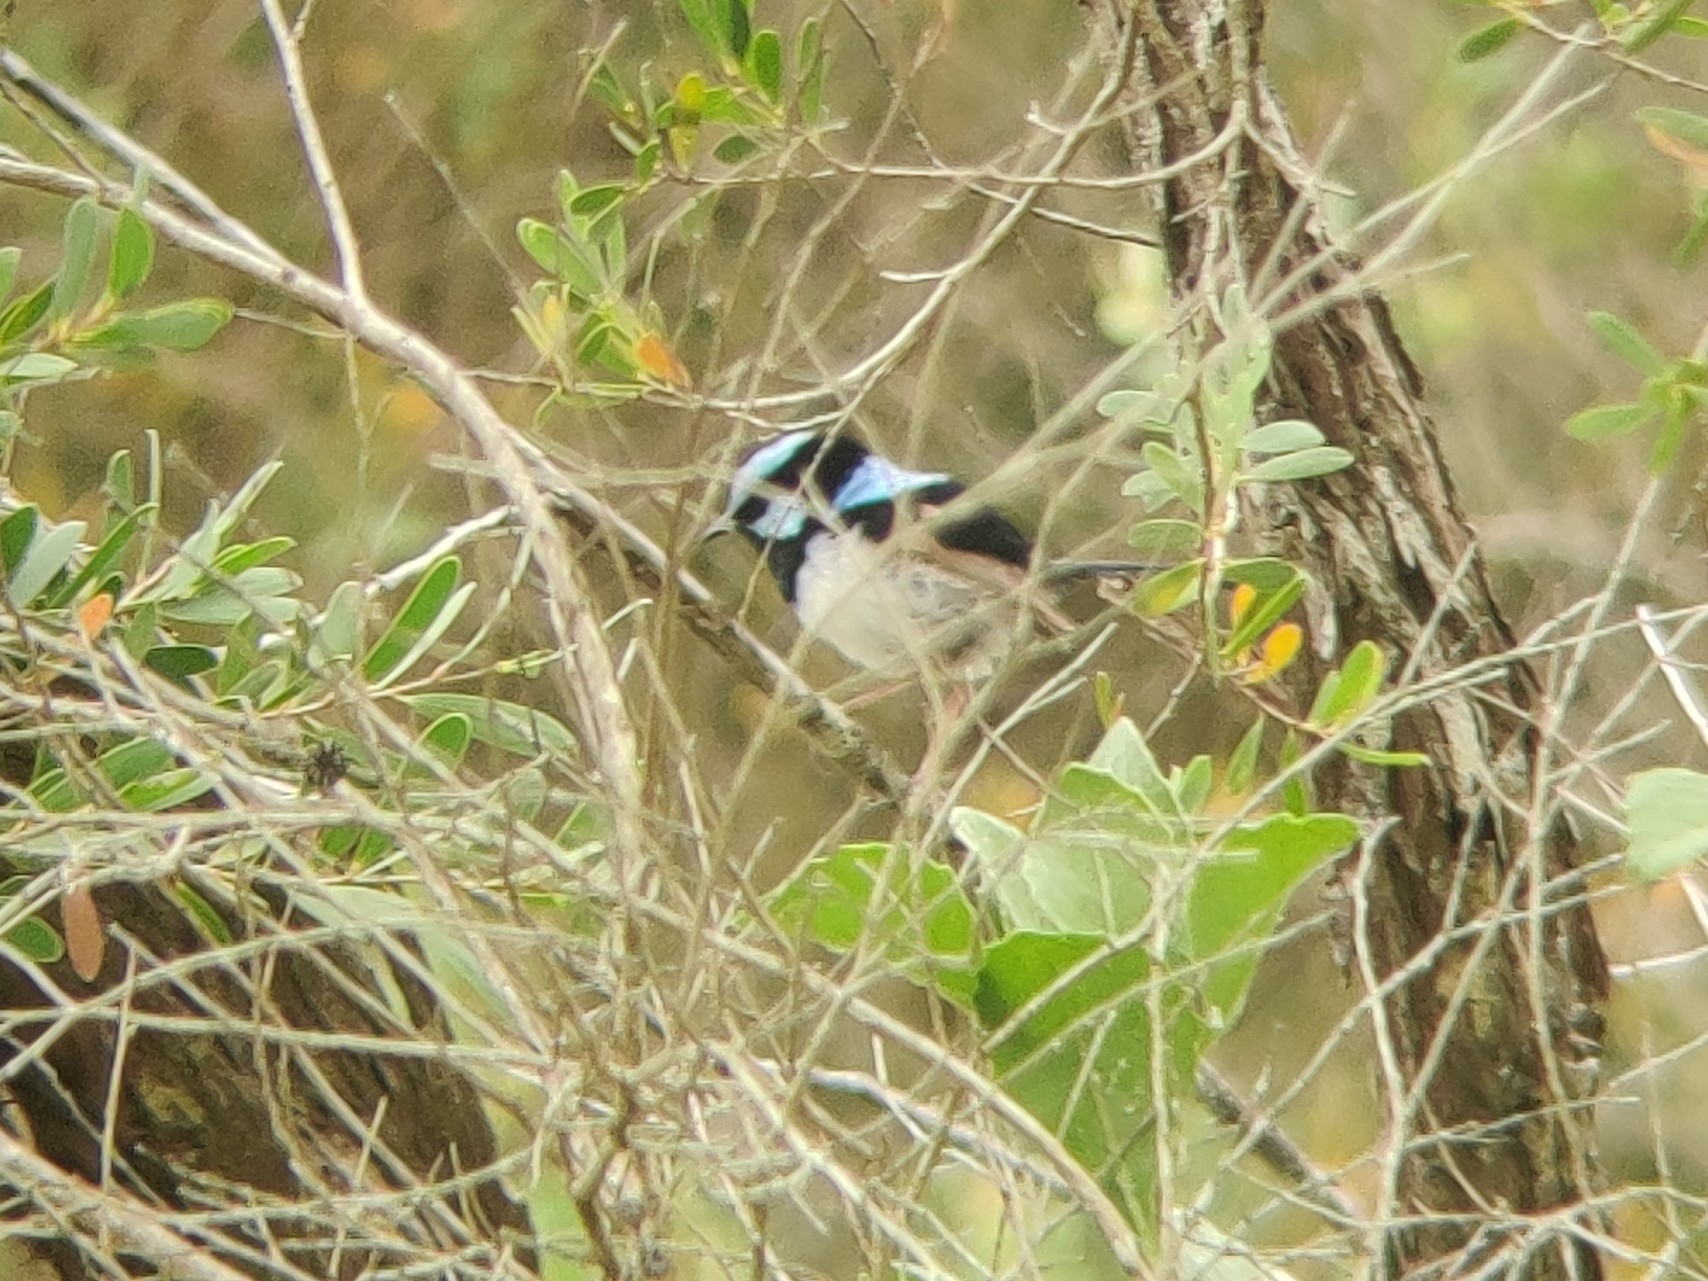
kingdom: Animalia
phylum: Chordata
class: Aves
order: Passeriformes
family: Maluridae
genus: Malurus
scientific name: Malurus cyaneus
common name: Superb fairywren
